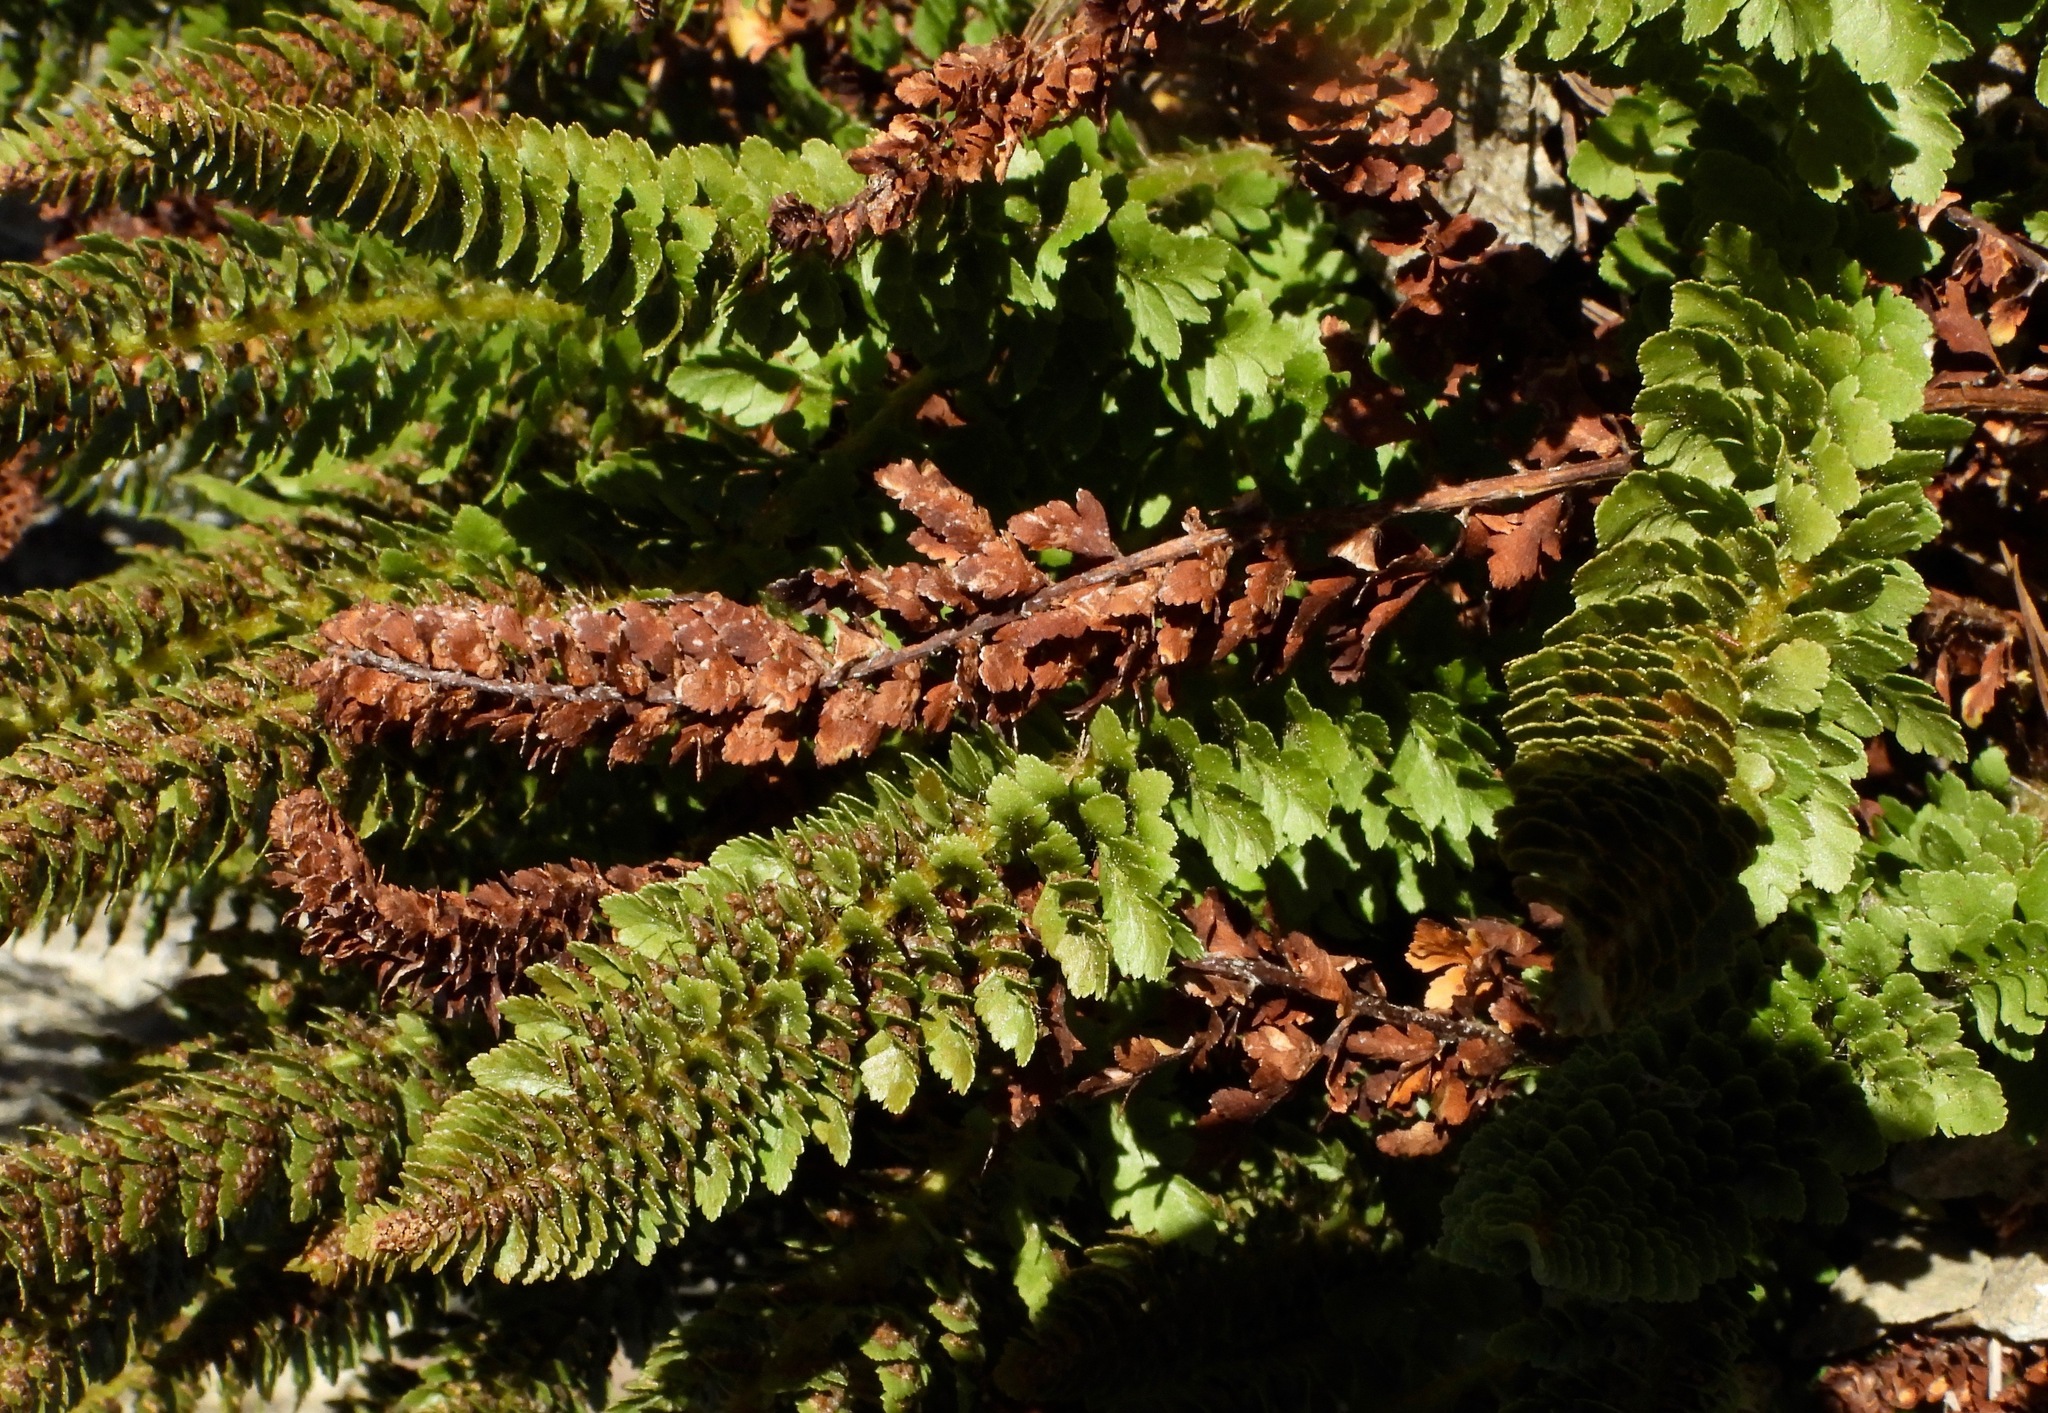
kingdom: Plantae
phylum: Tracheophyta
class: Polypodiopsida
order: Polypodiales
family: Dryopteridaceae
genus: Polystichum
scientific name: Polystichum lemmonii
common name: Lemmon's holly fern
